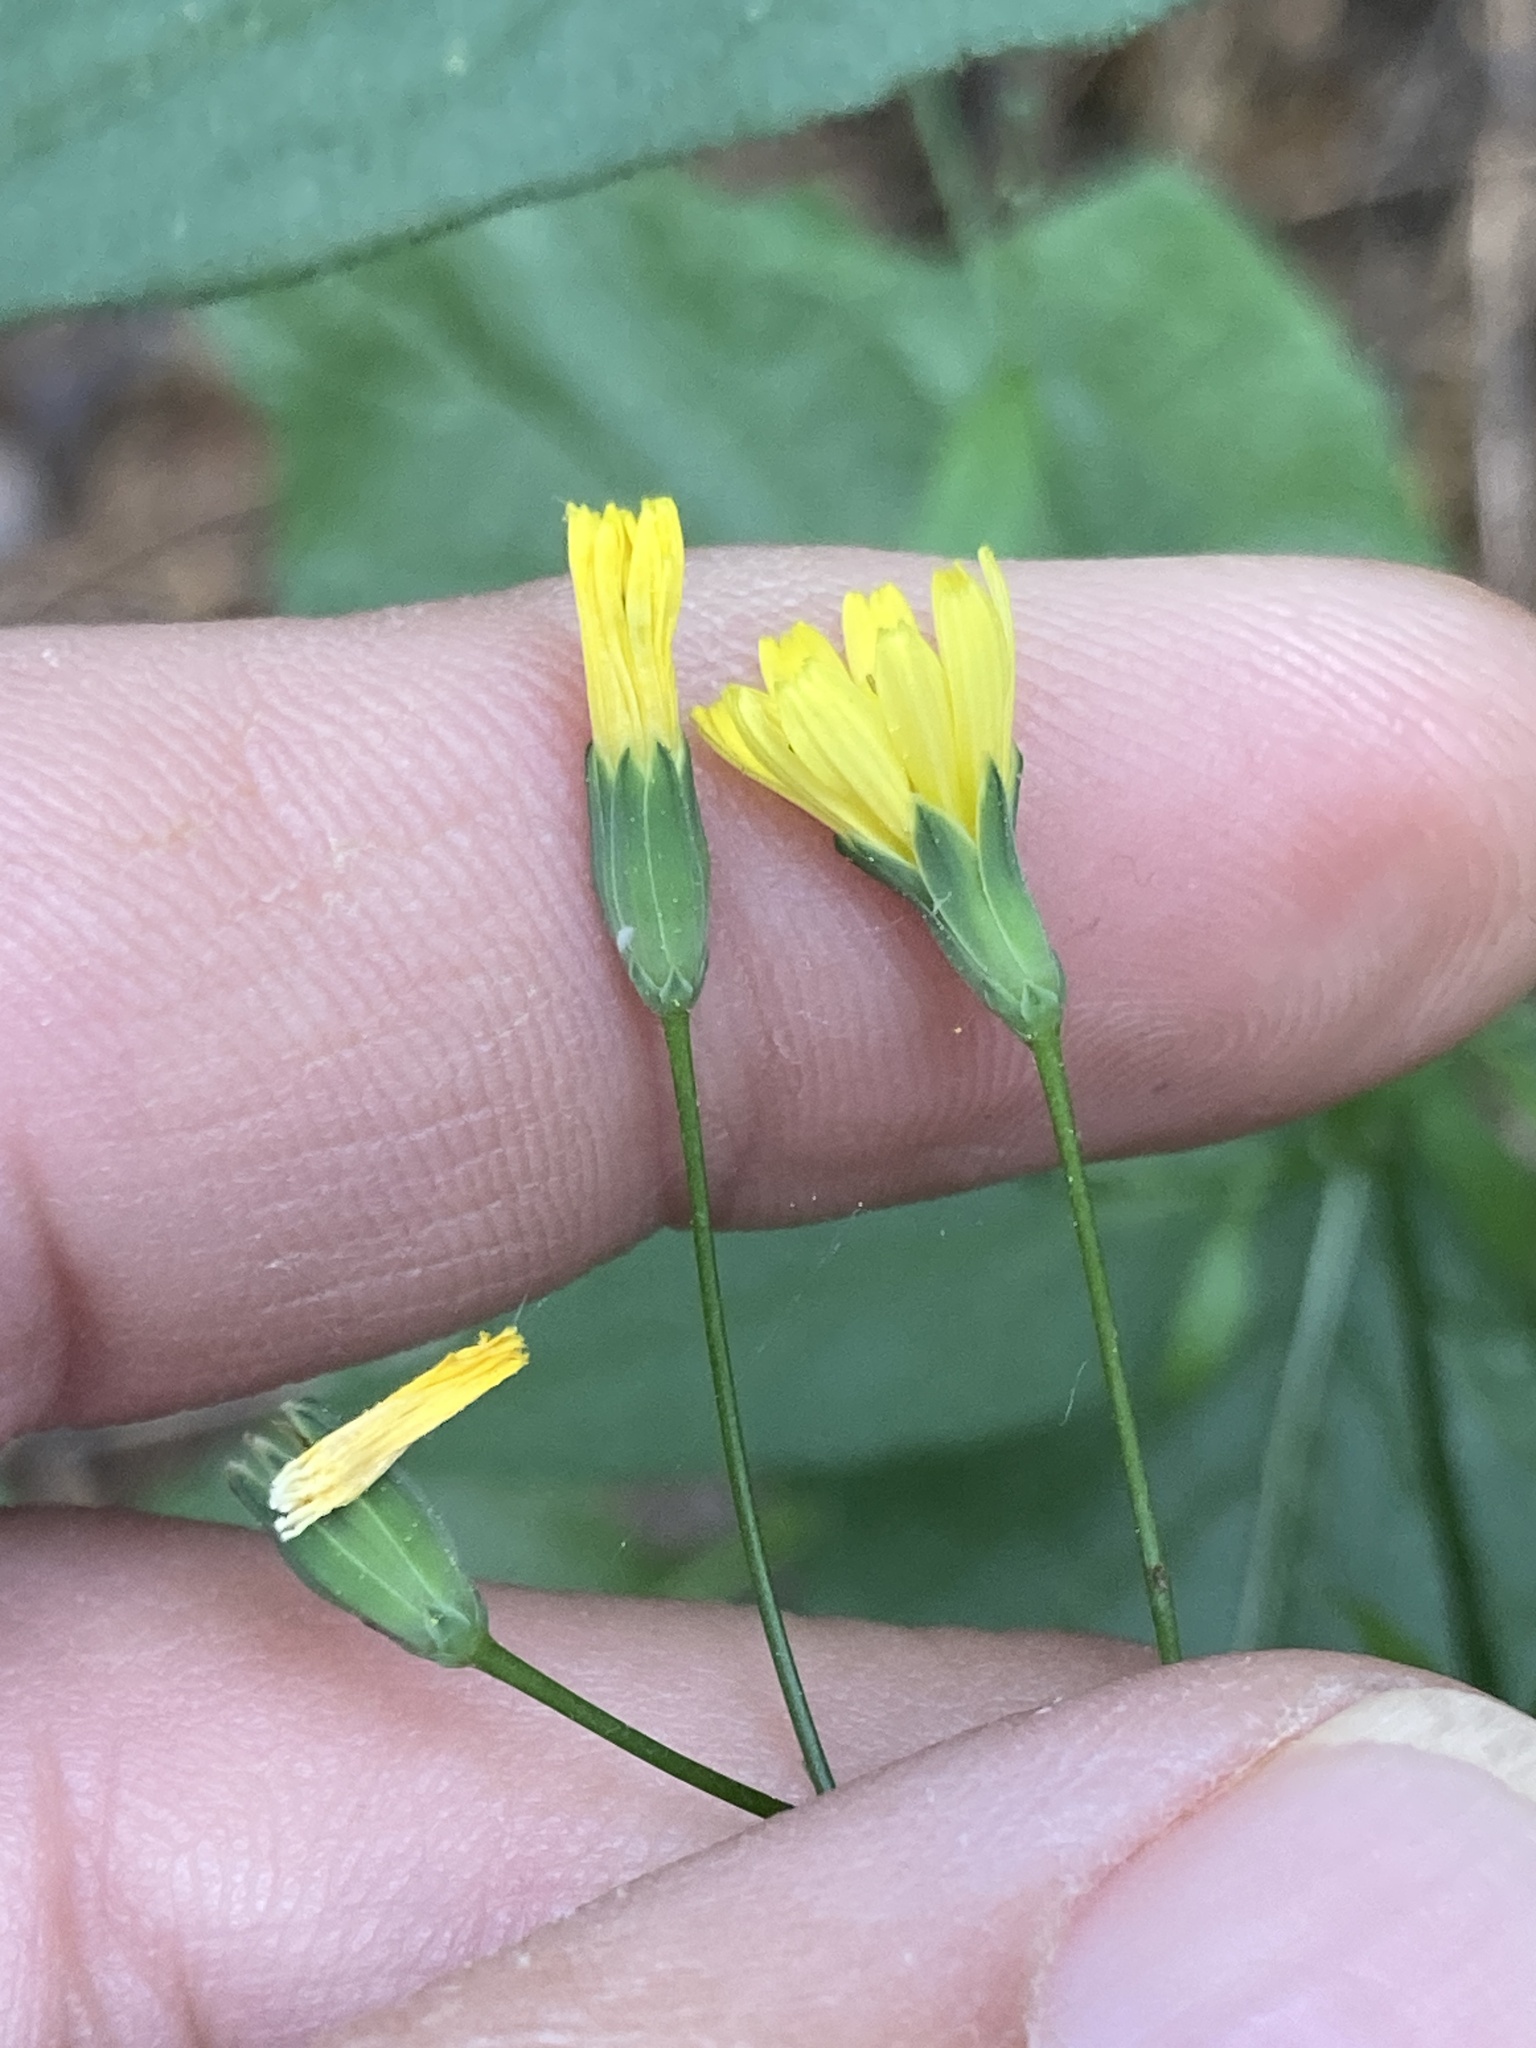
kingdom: Plantae
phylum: Tracheophyta
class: Magnoliopsida
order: Asterales
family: Asteraceae
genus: Lapsana
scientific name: Lapsana communis
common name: Nipplewort
